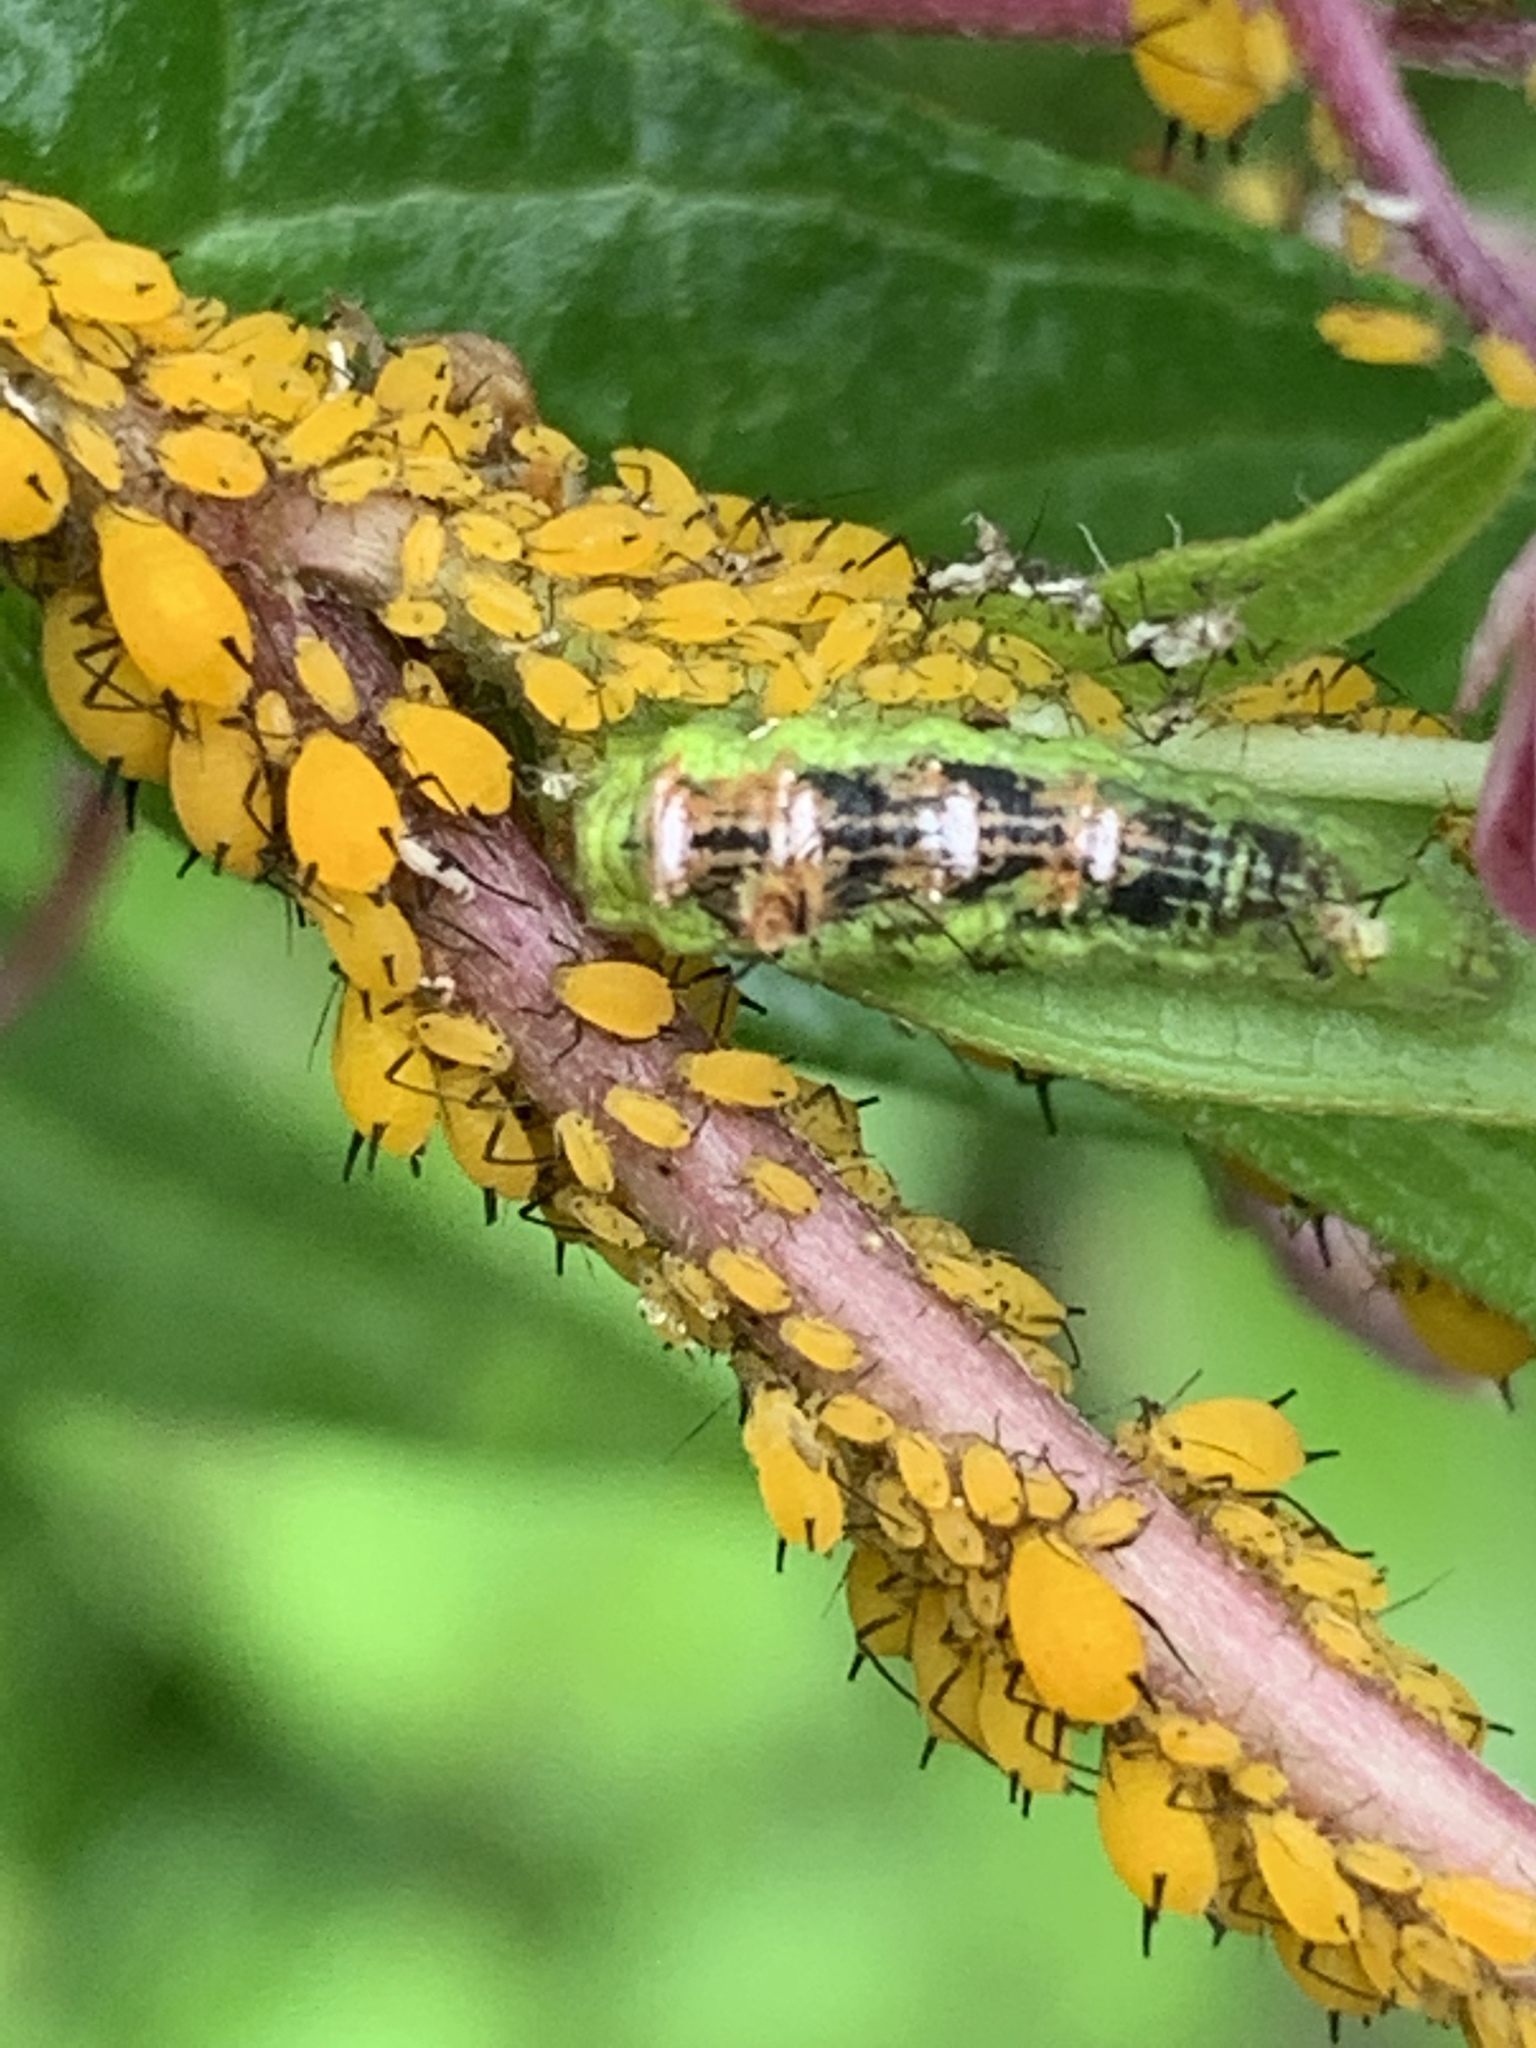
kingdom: Animalia
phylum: Arthropoda
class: Insecta
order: Diptera
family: Syrphidae
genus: Eupeodes
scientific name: Eupeodes pomus
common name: Short-tailed aphideater
